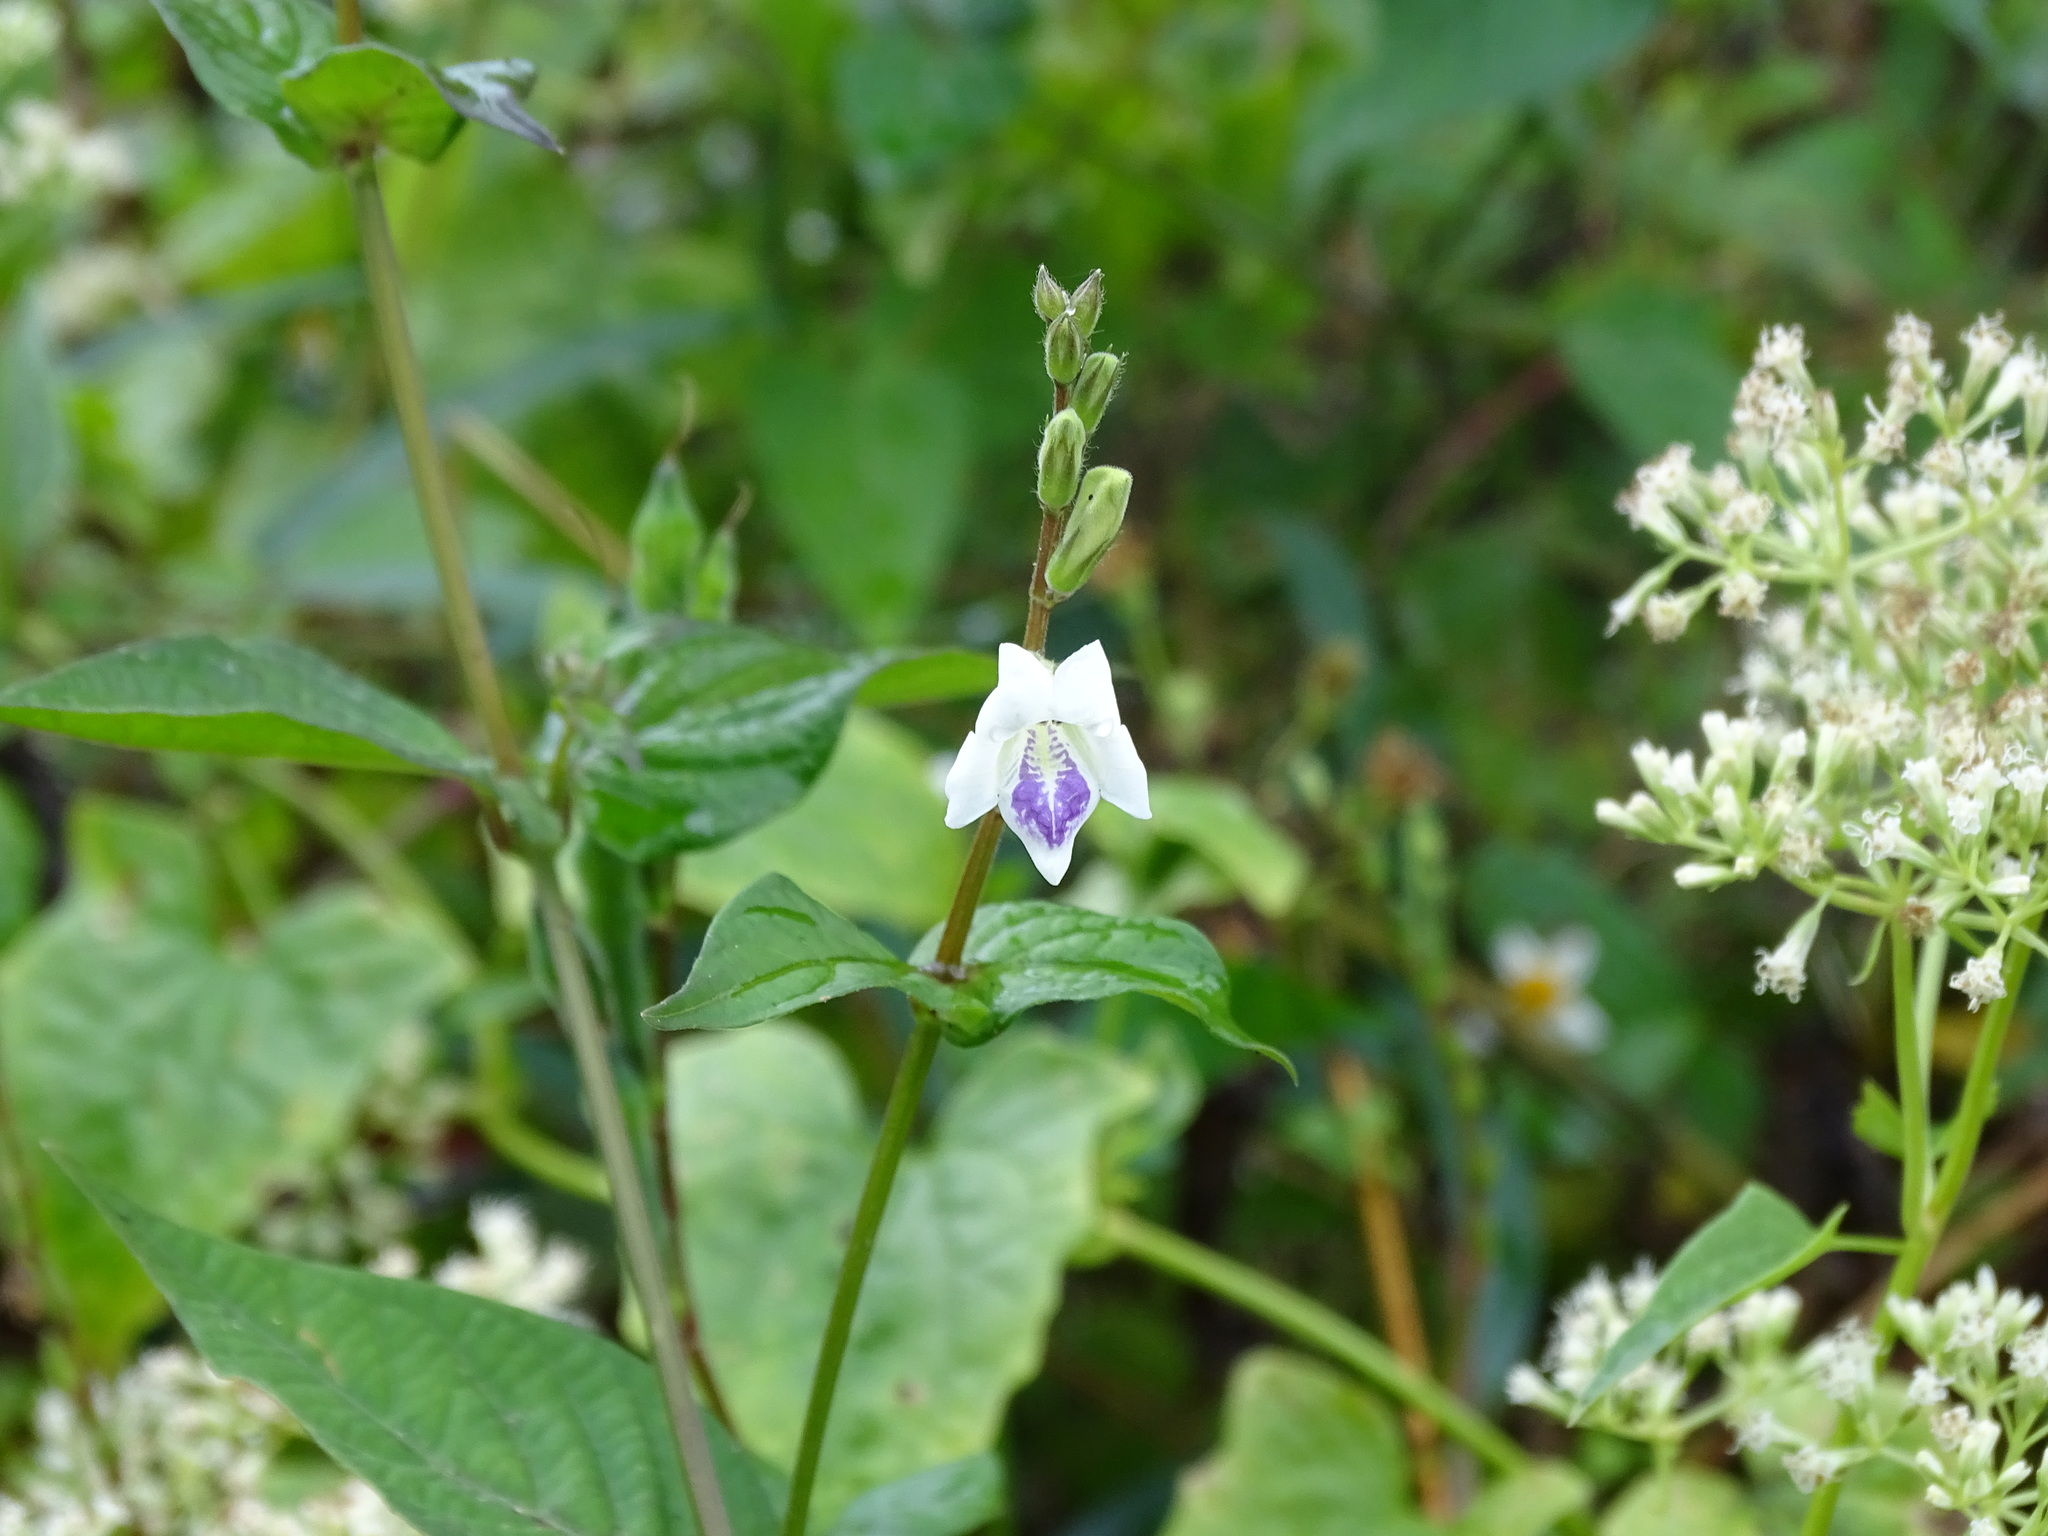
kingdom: Plantae
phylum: Tracheophyta
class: Magnoliopsida
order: Lamiales
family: Acanthaceae
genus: Asystasia
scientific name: Asystasia intrusa
